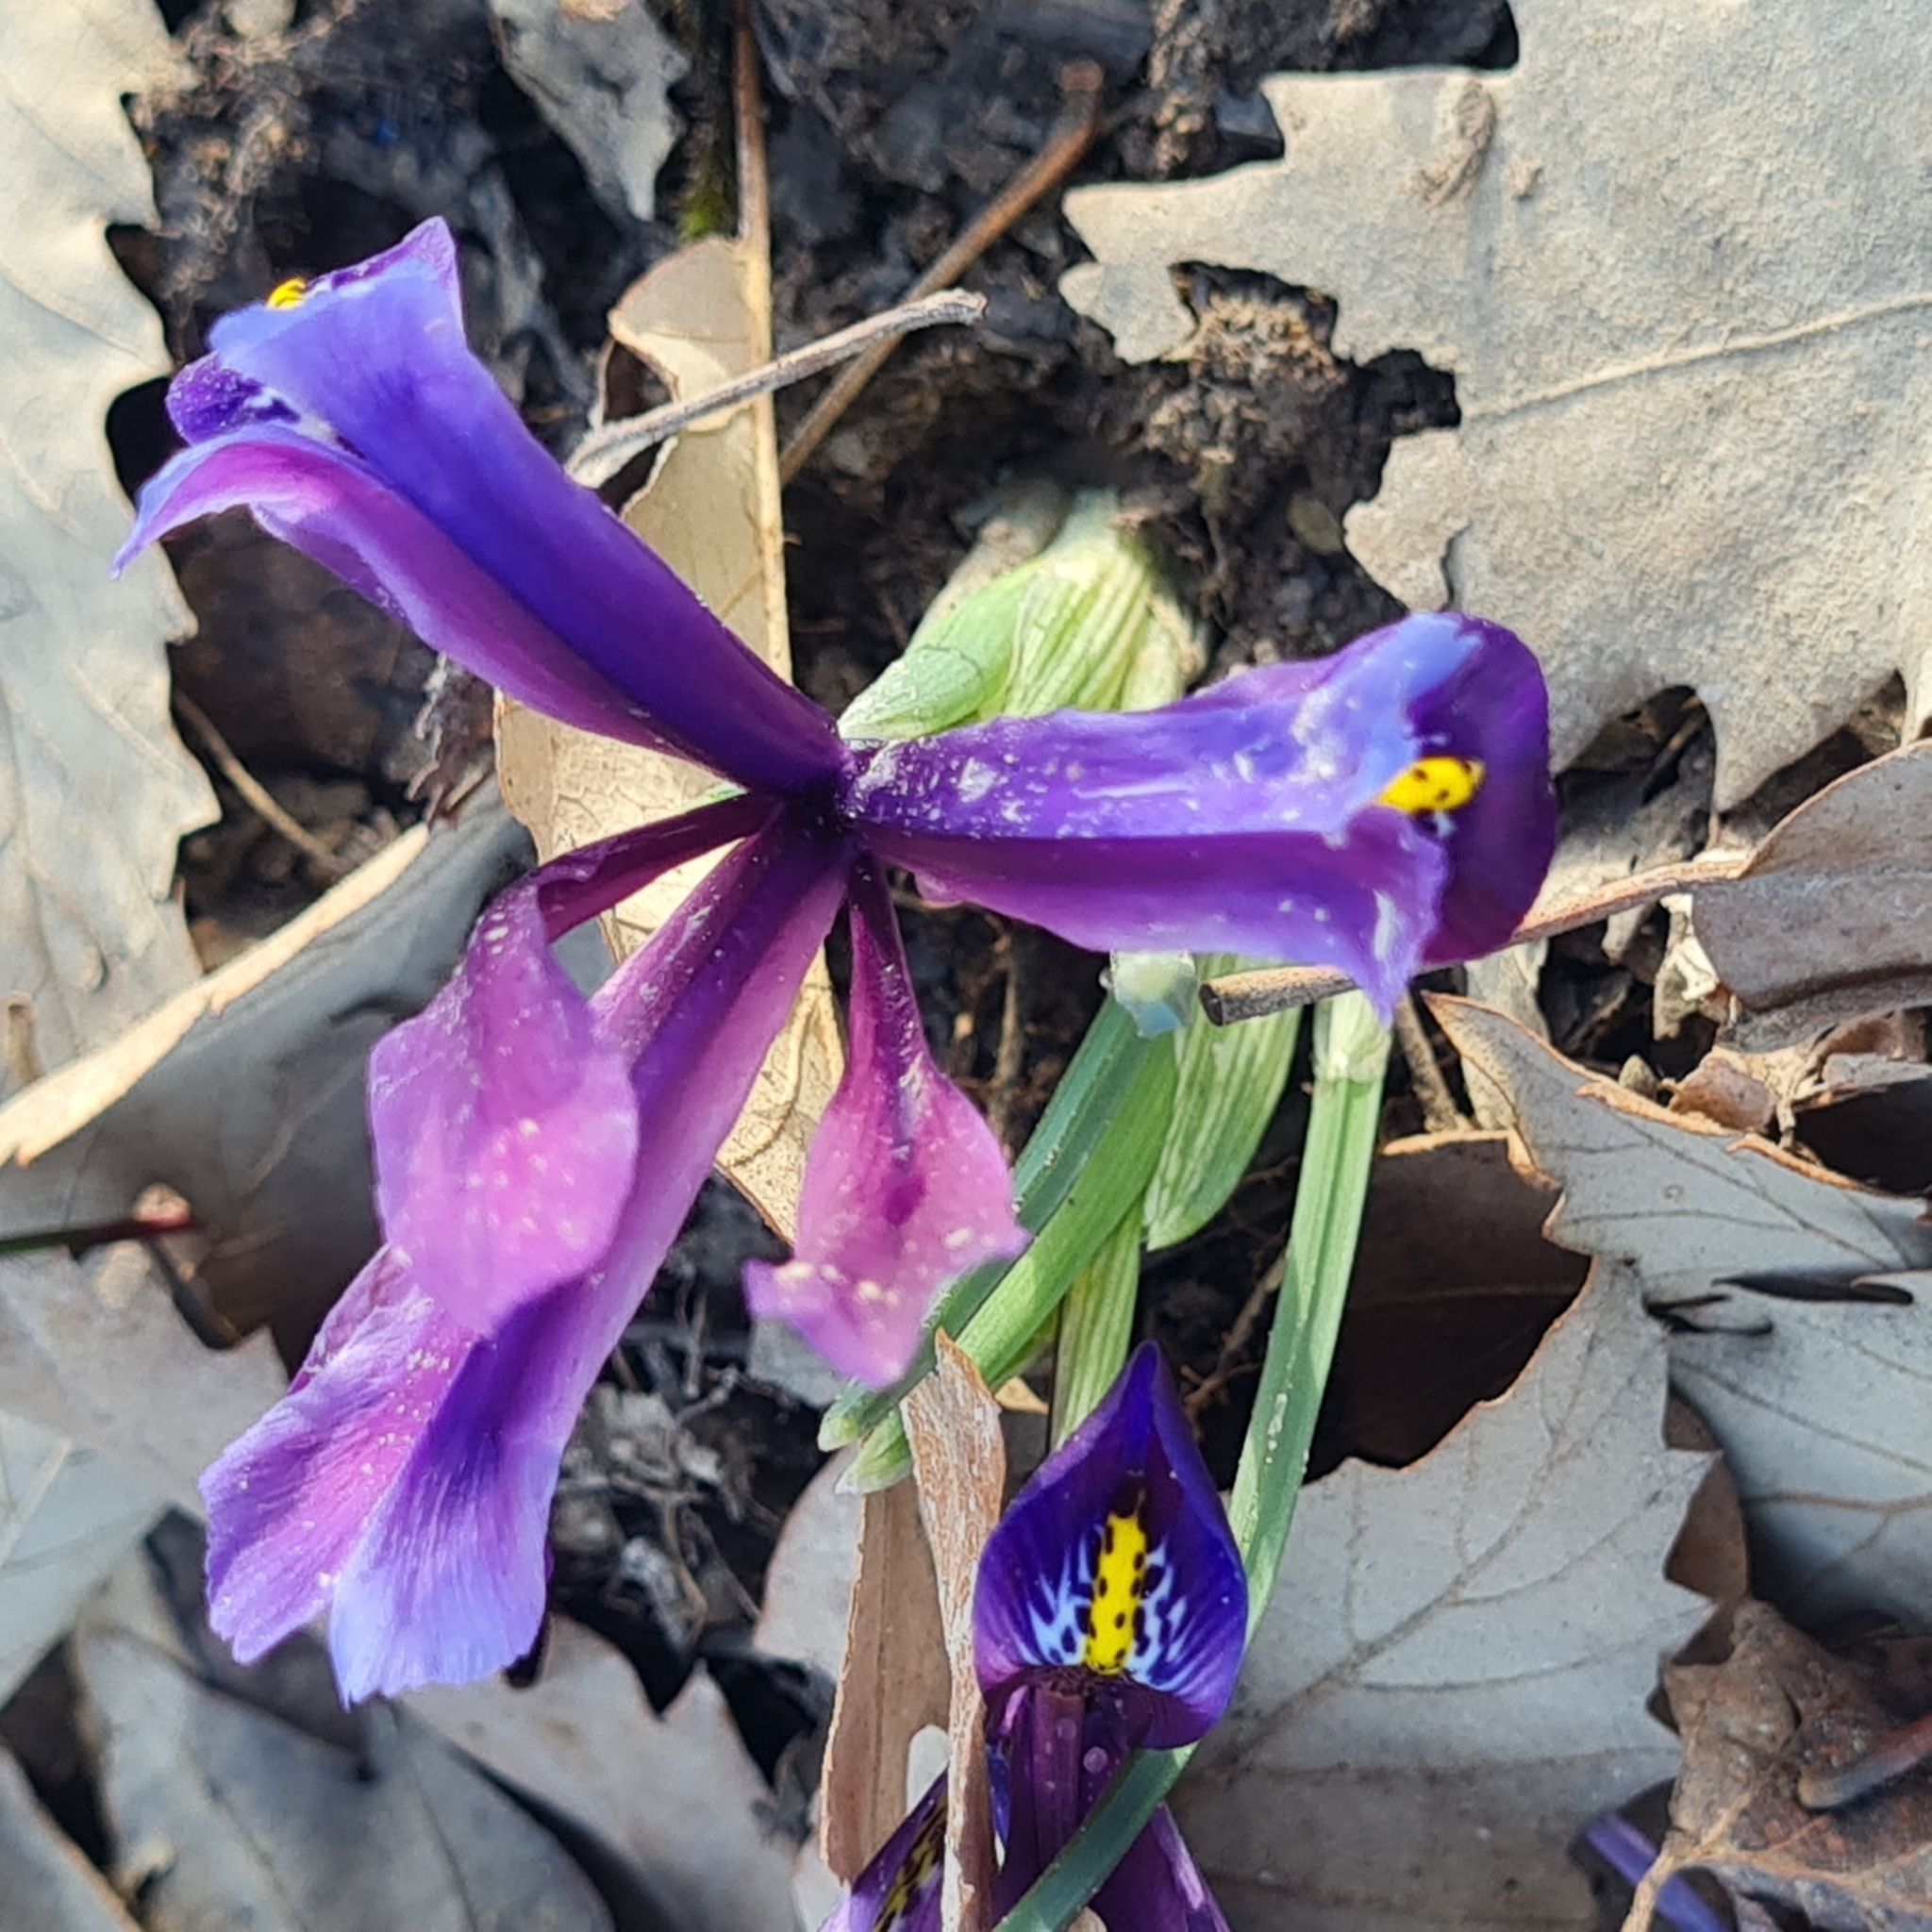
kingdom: Plantae
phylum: Tracheophyta
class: Liliopsida
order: Asparagales
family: Iridaceae
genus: Iris
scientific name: Iris reticulata
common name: Netted iris
